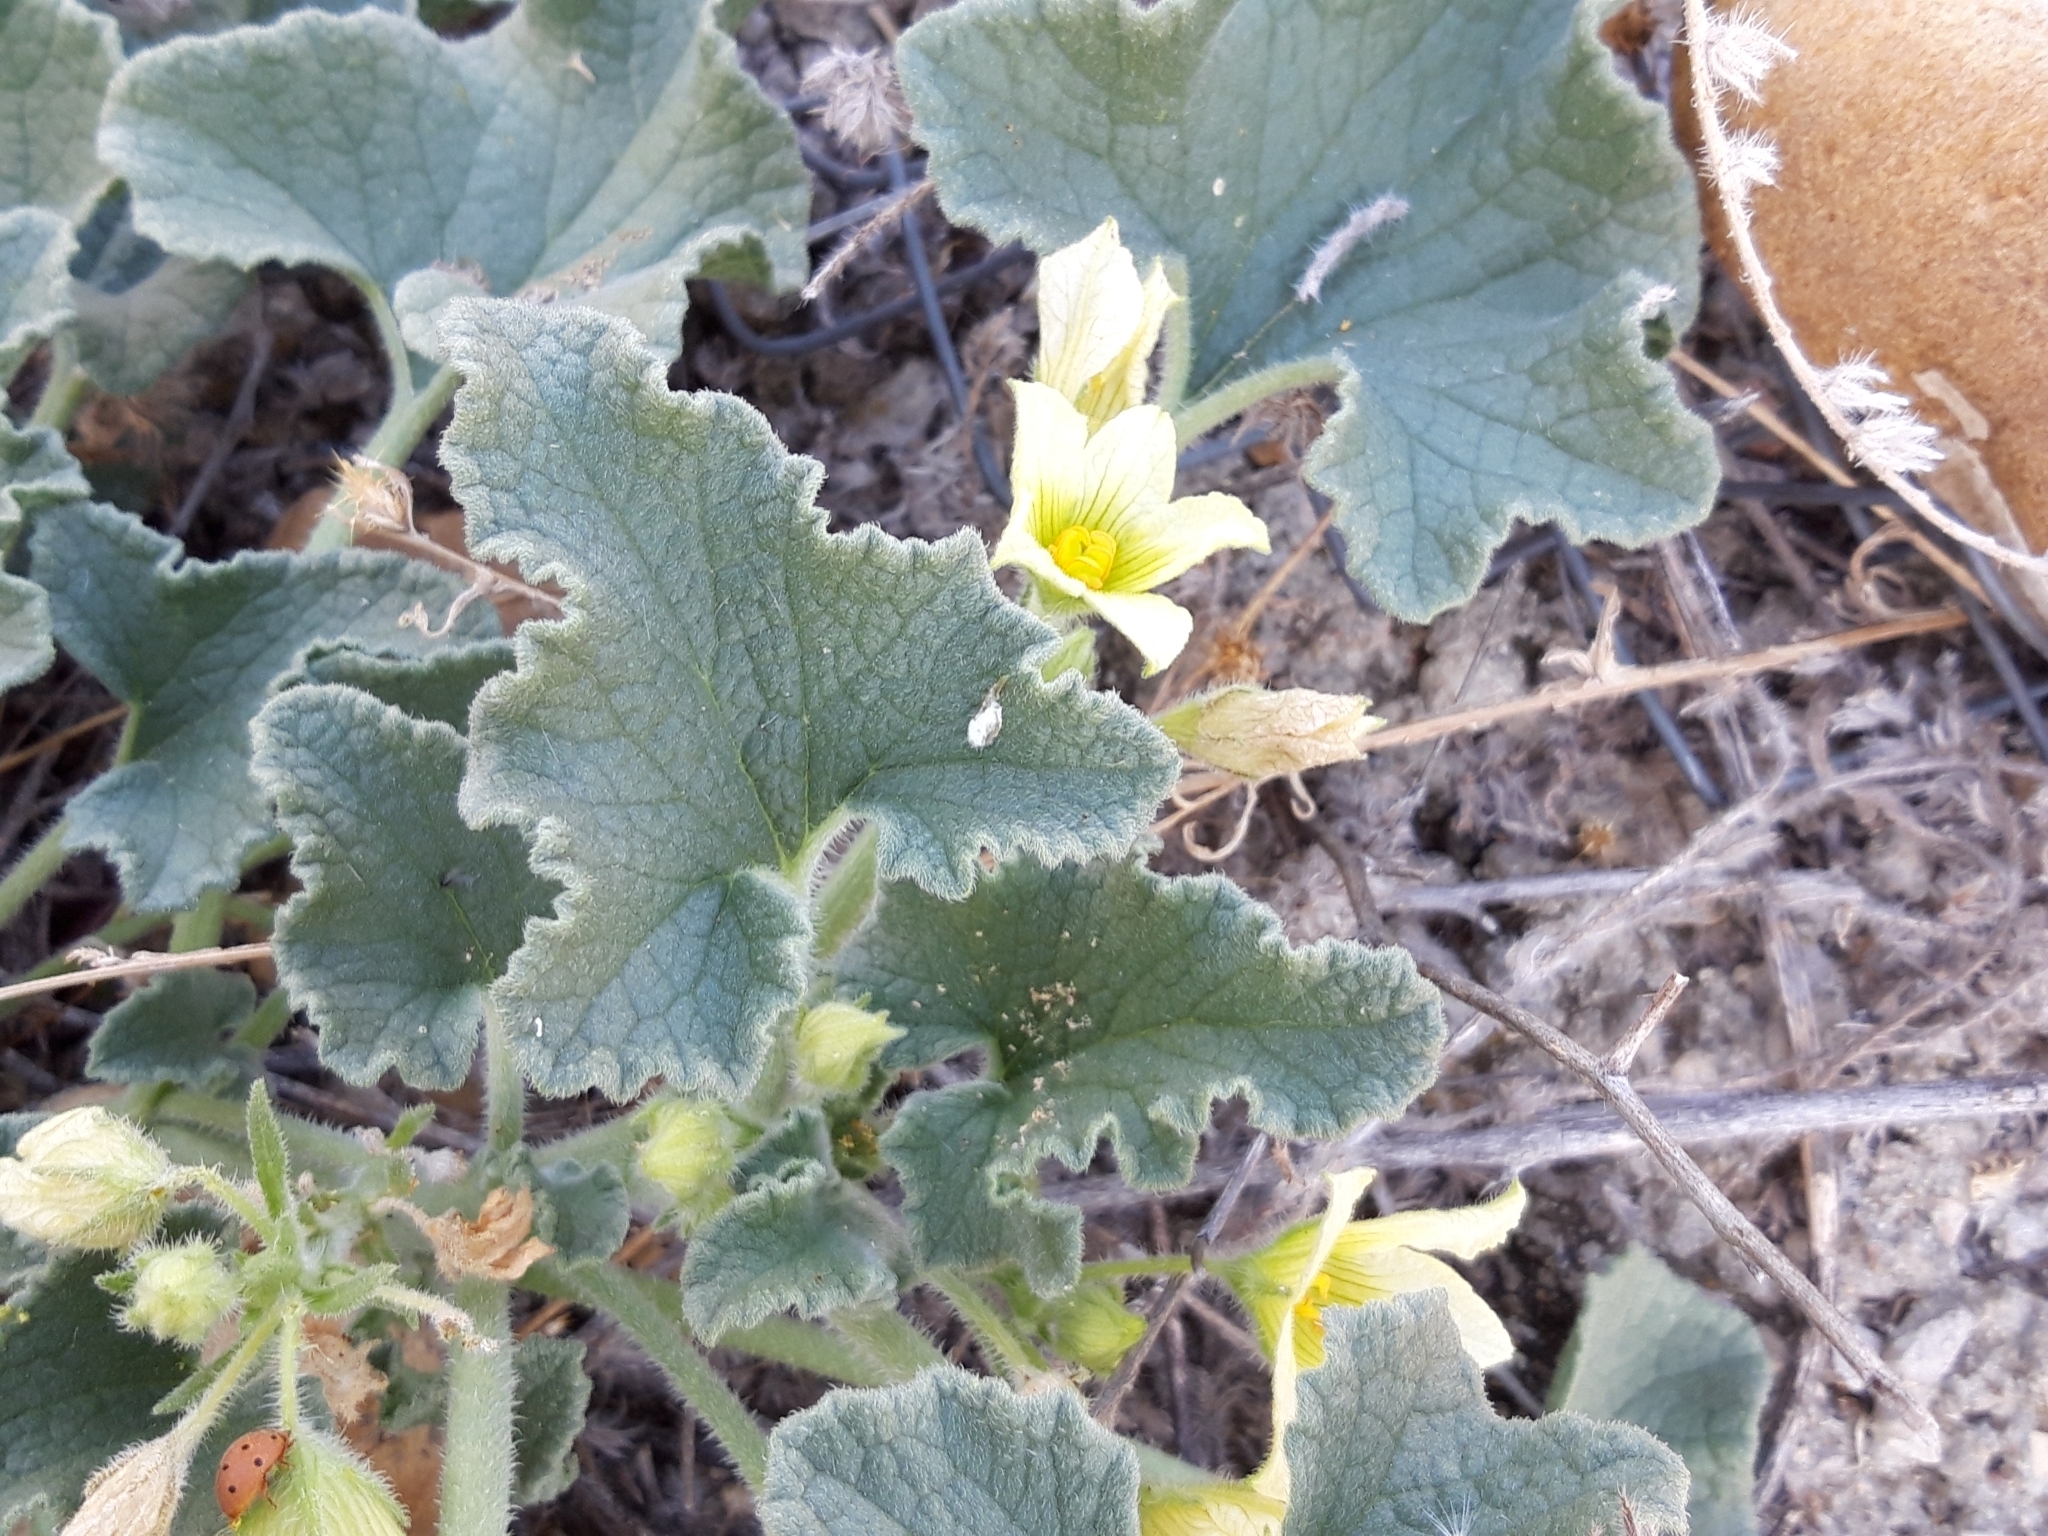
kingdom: Plantae
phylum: Tracheophyta
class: Magnoliopsida
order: Cucurbitales
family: Cucurbitaceae
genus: Ecballium
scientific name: Ecballium elaterium
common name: Squirting cucumber
